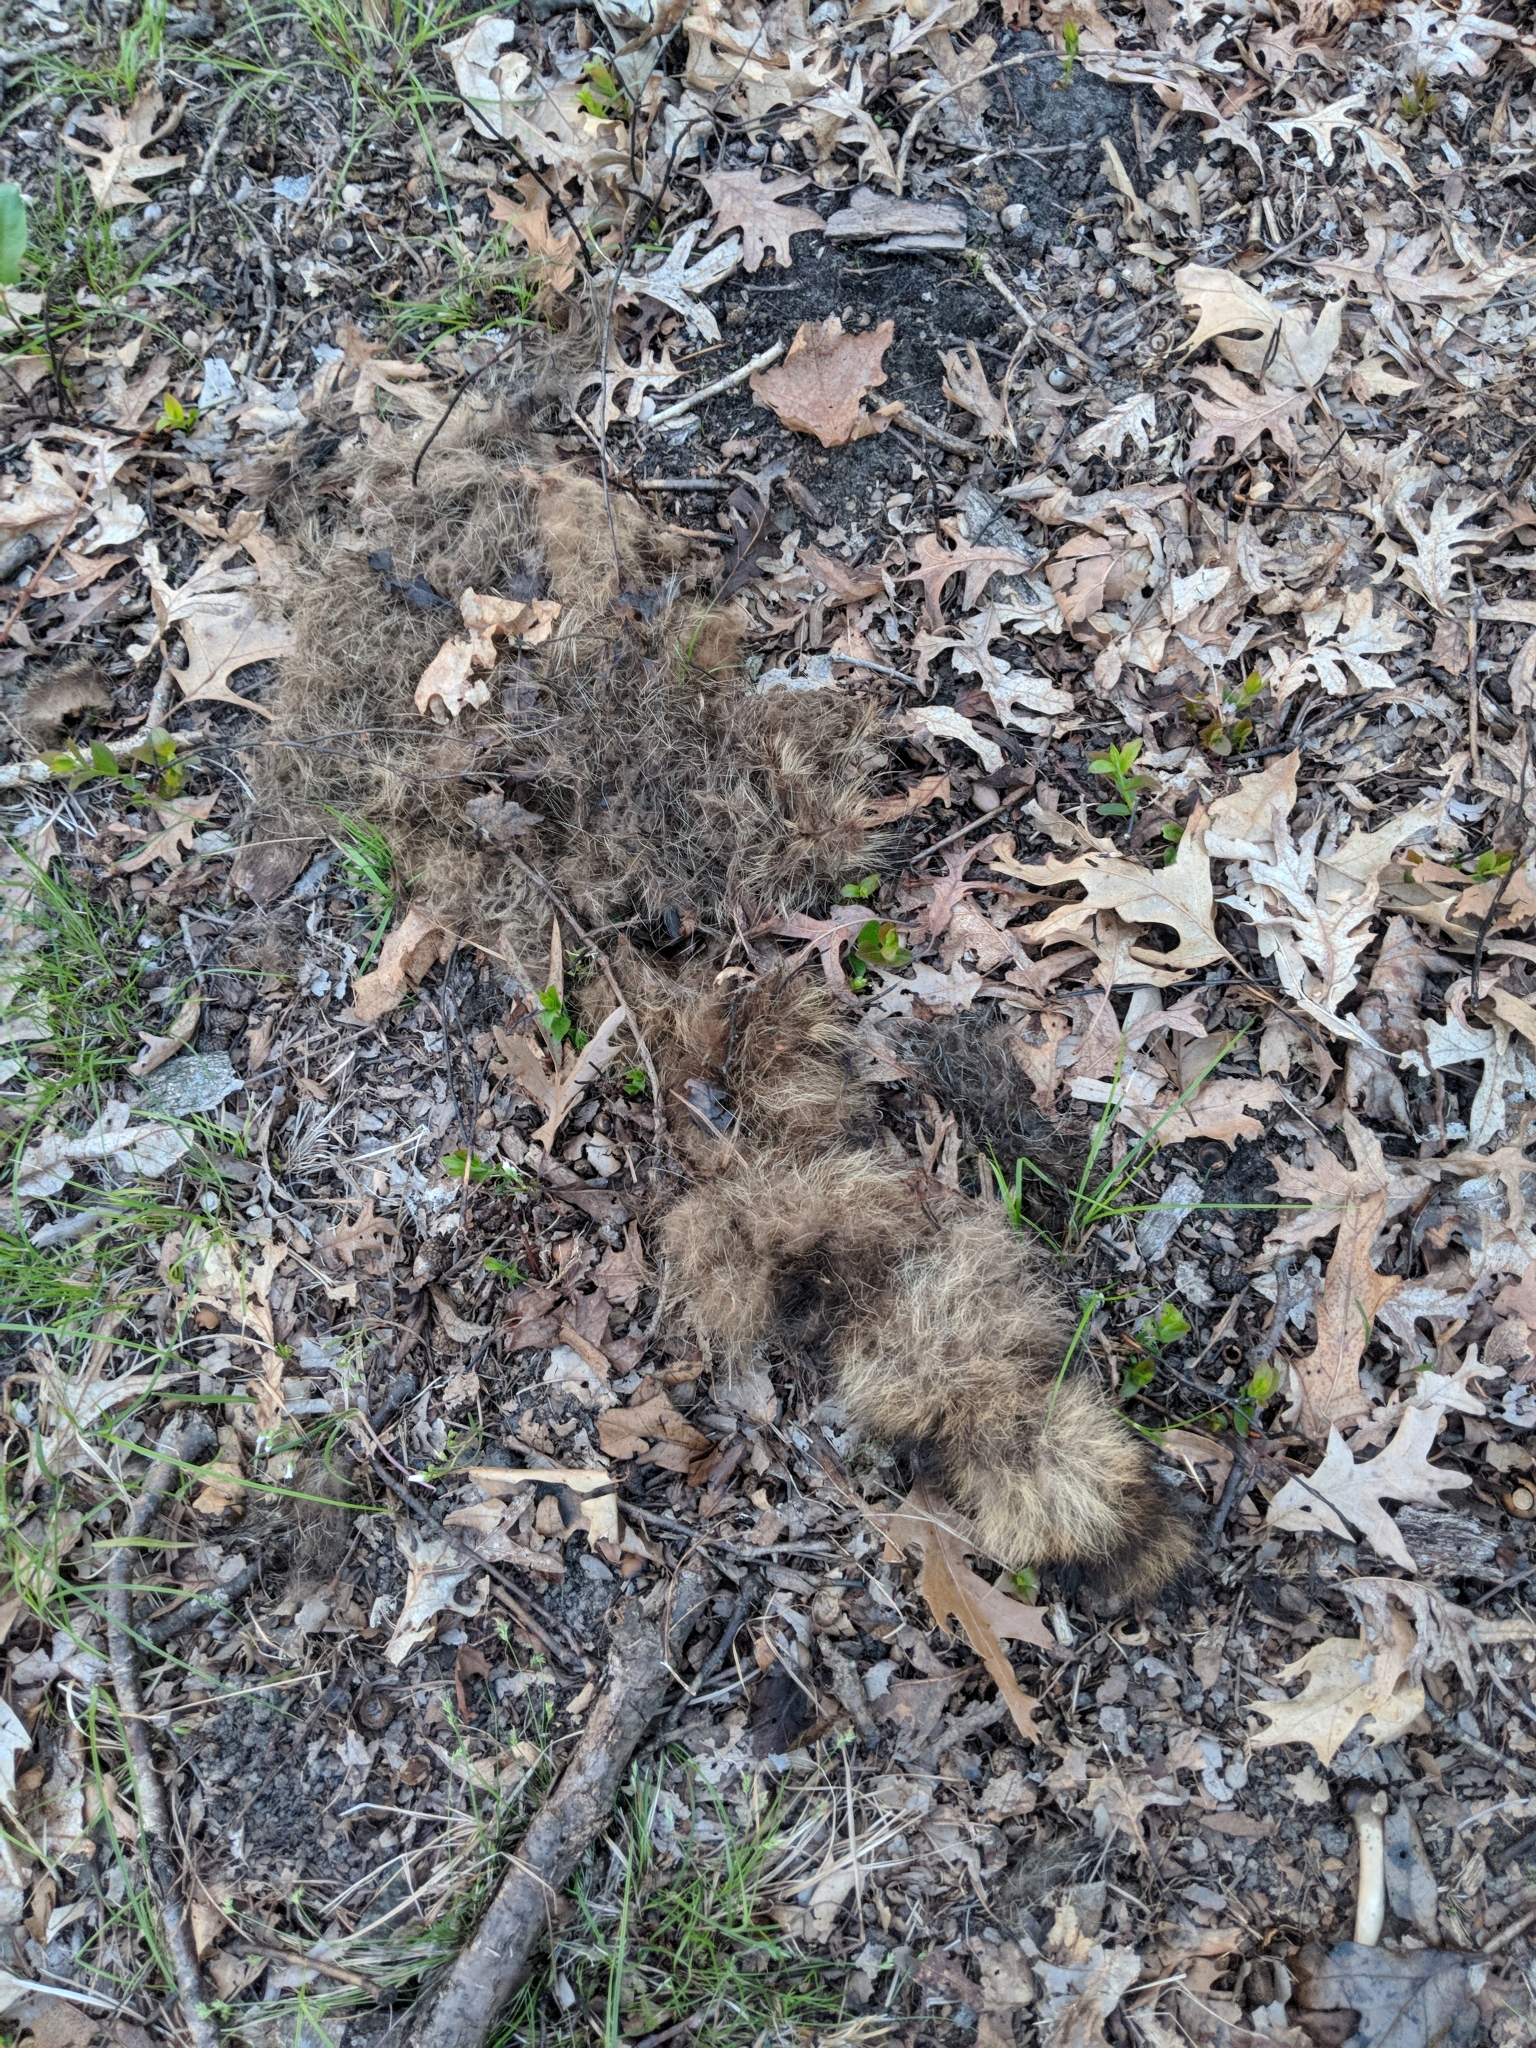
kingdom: Animalia
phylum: Chordata
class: Mammalia
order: Carnivora
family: Procyonidae
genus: Procyon
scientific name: Procyon lotor
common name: Raccoon
